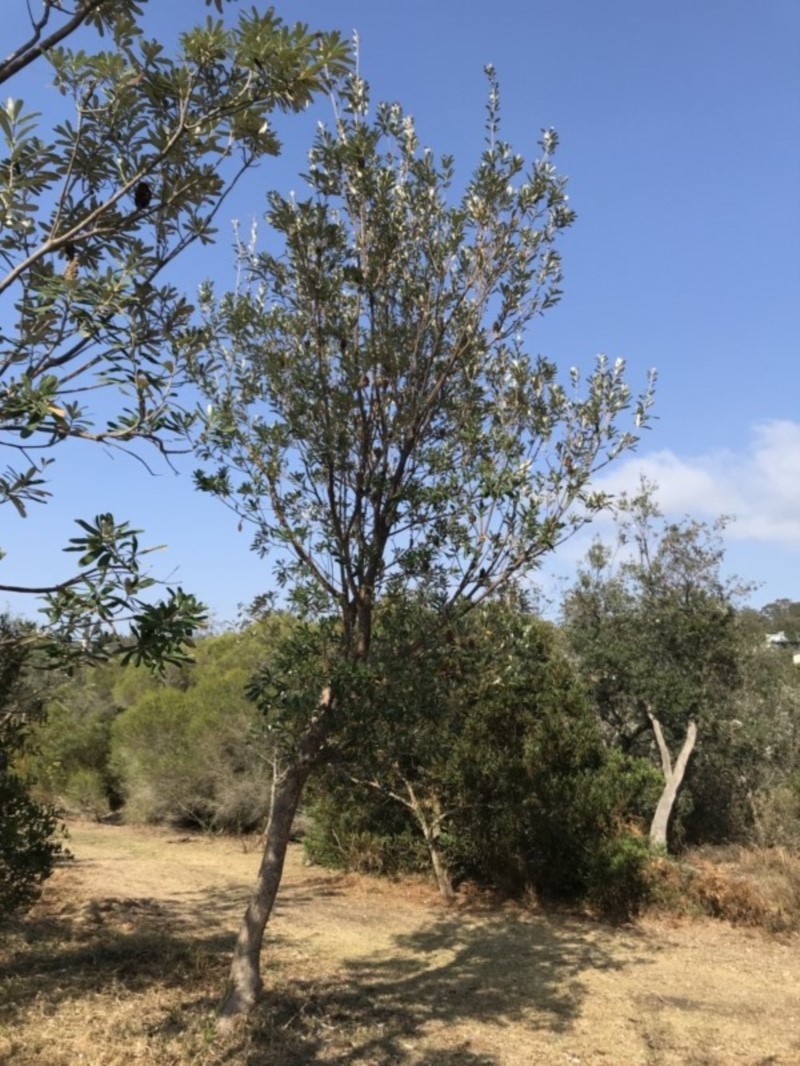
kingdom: Plantae
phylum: Tracheophyta
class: Magnoliopsida
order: Proteales
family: Proteaceae
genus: Banksia
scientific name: Banksia integrifolia
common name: White-honeysuckle
